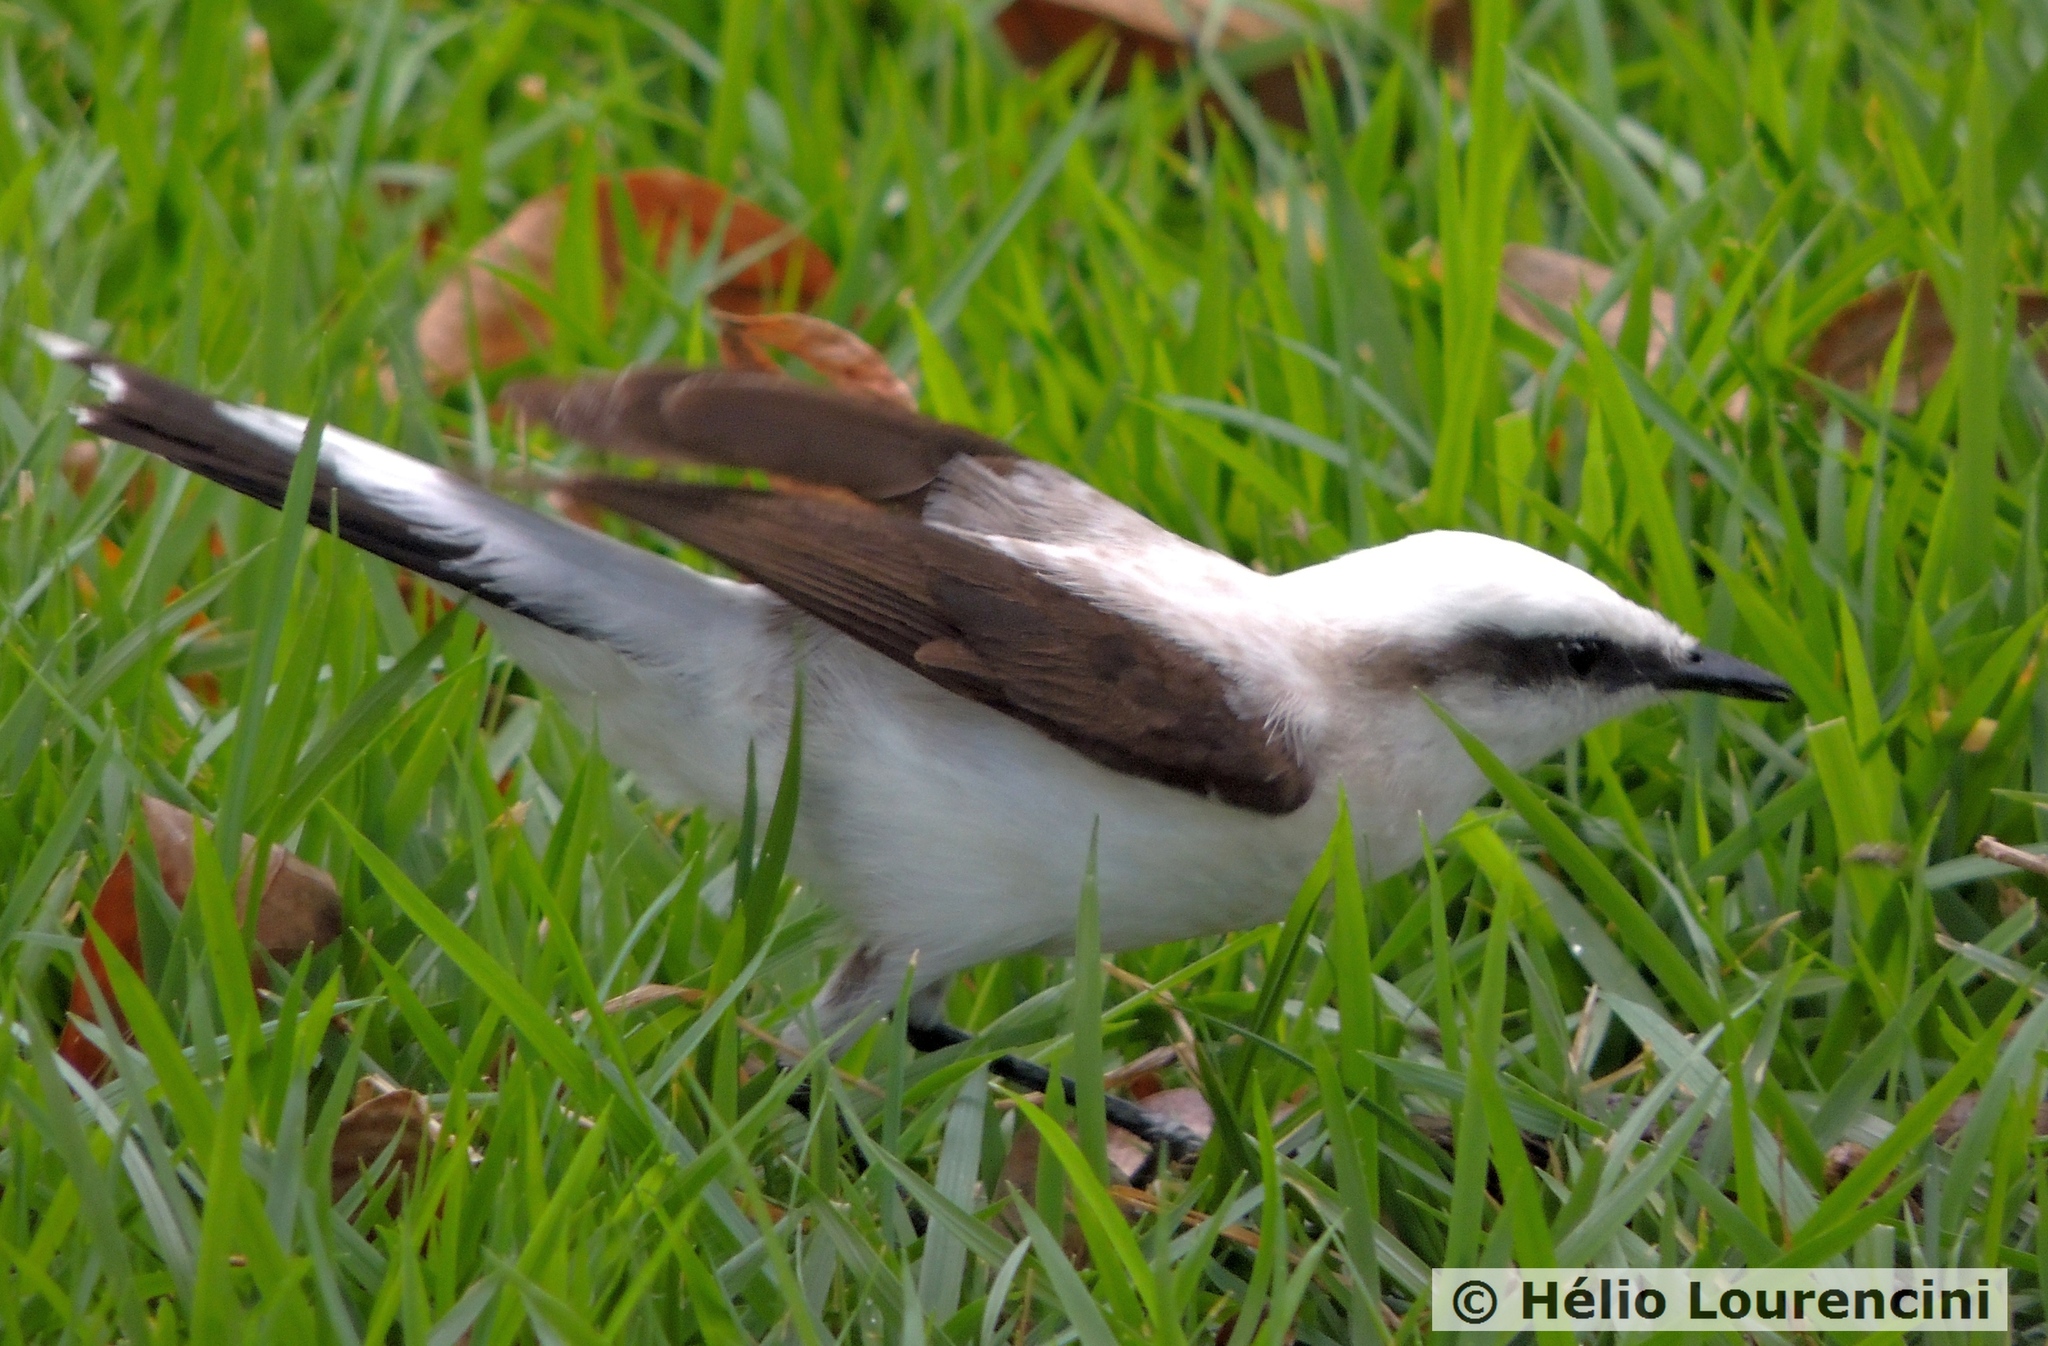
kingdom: Animalia
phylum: Chordata
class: Aves
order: Passeriformes
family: Tyrannidae
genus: Fluvicola
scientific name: Fluvicola nengeta
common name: Masked water tyrant
